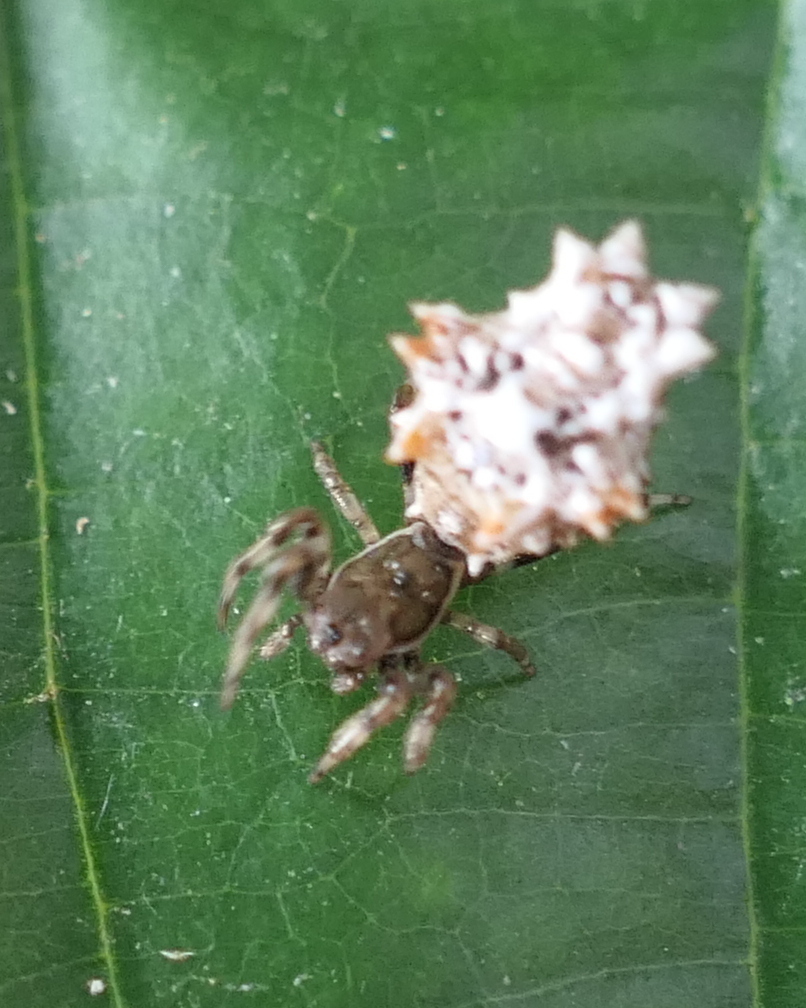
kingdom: Animalia
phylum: Arthropoda
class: Arachnida
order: Araneae
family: Araneidae
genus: Micrathena
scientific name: Micrathena horrida
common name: Orb weavers
